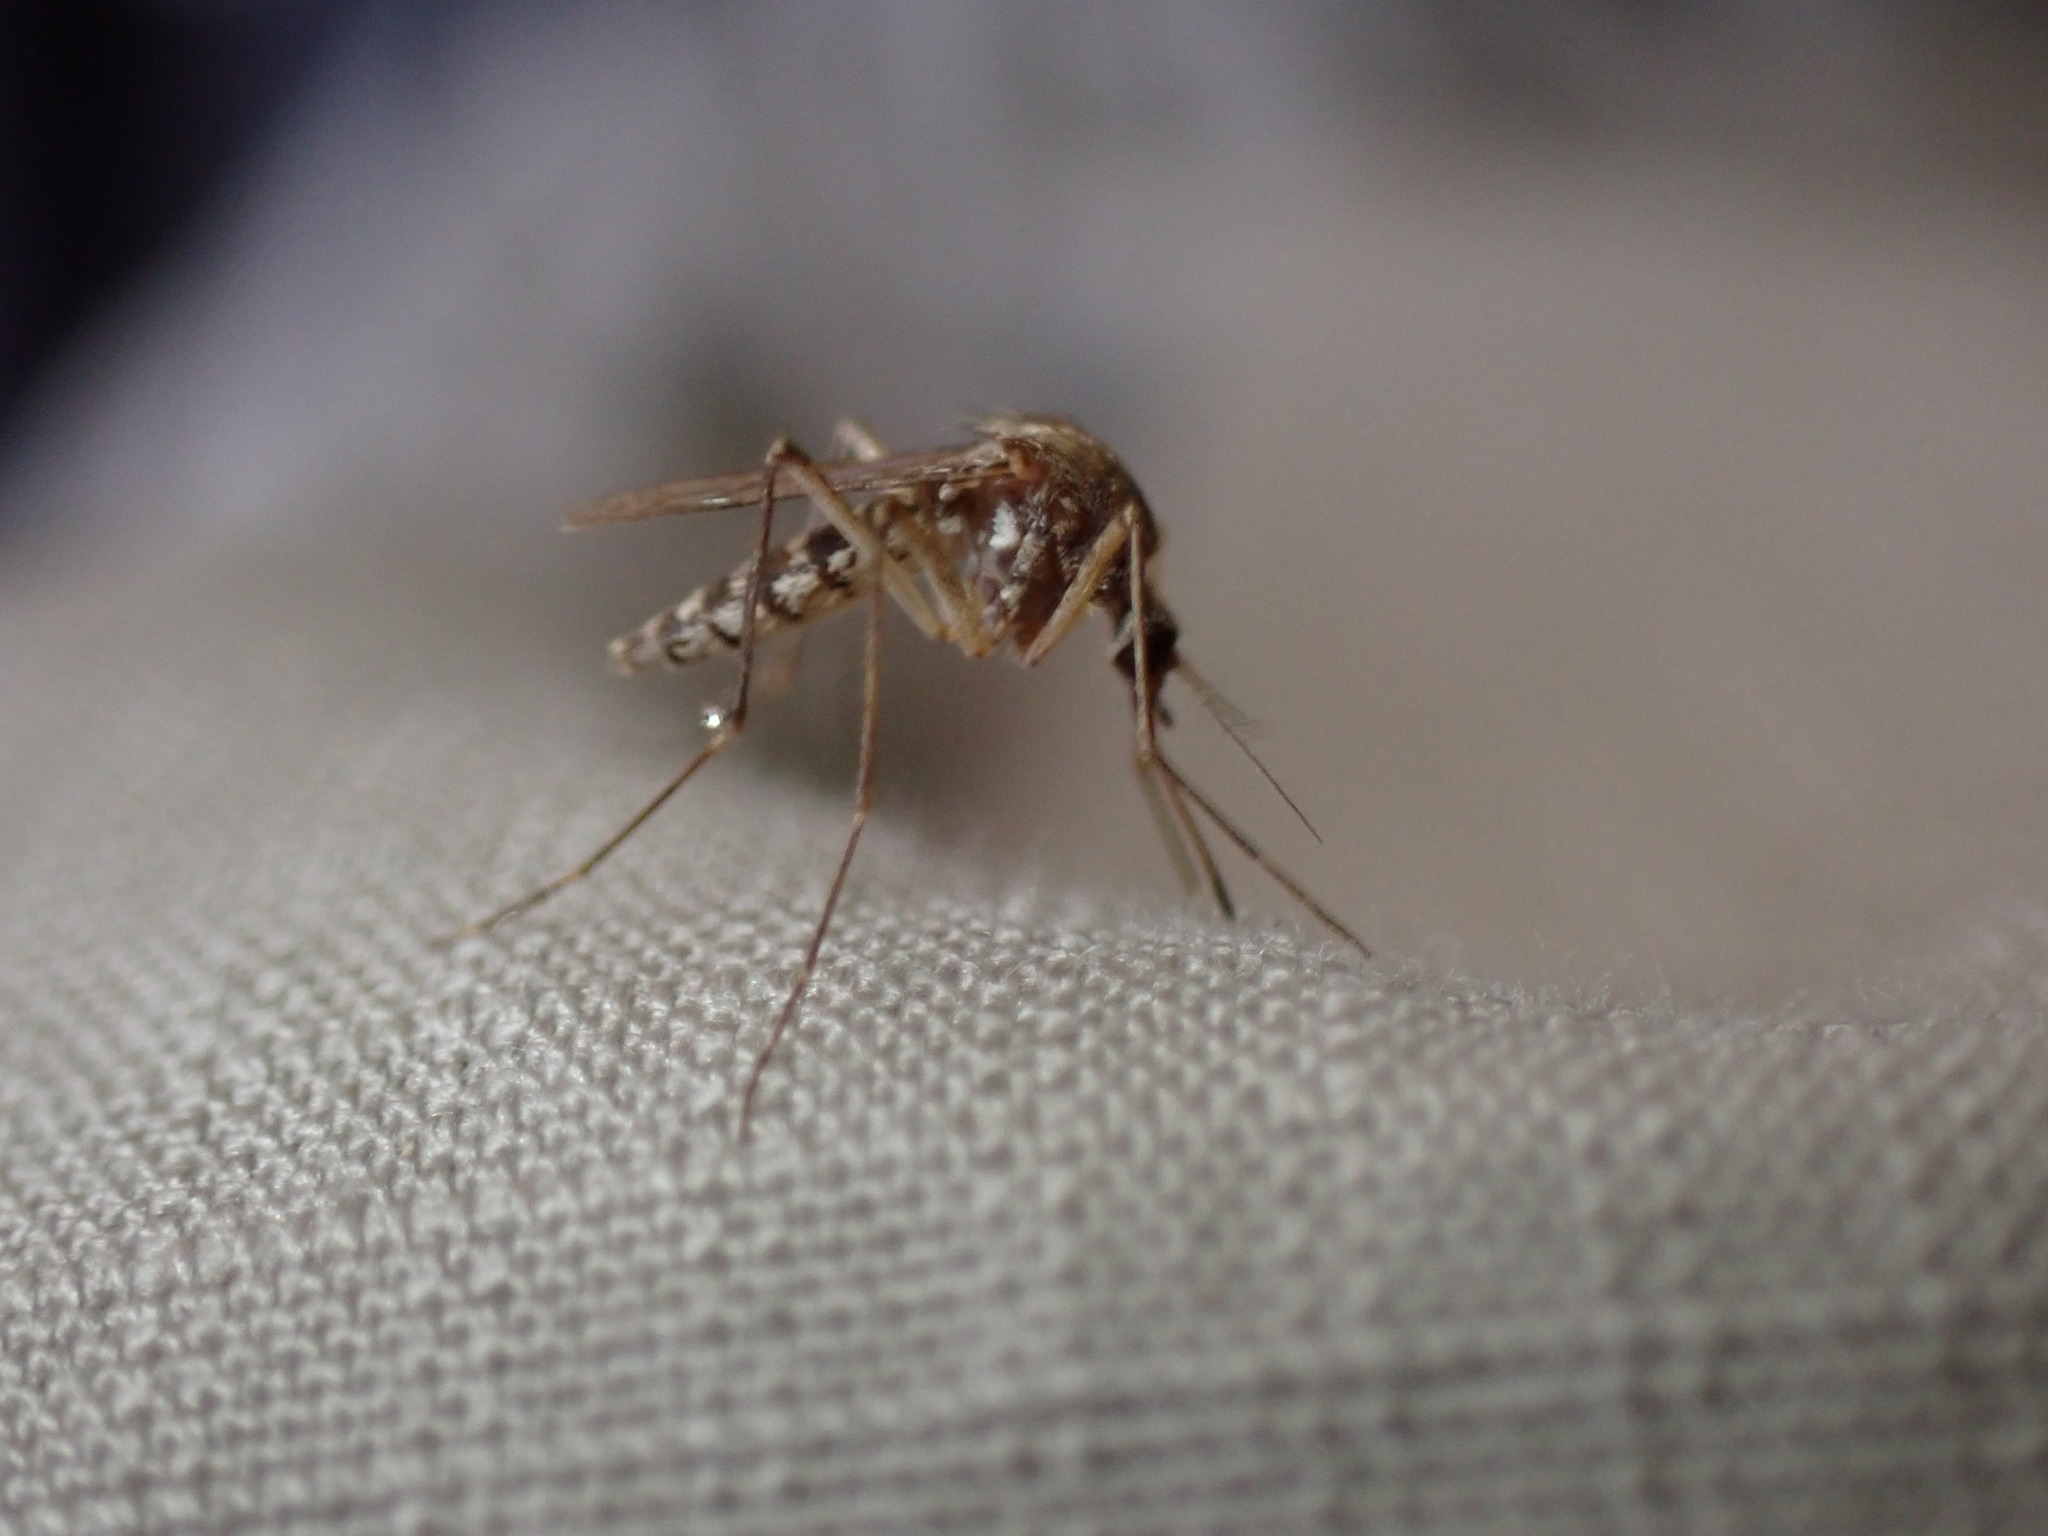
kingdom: Animalia
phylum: Arthropoda
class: Insecta
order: Diptera
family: Culicidae
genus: Aedes
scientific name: Aedes vexans
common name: Inland floodwater mosquito
